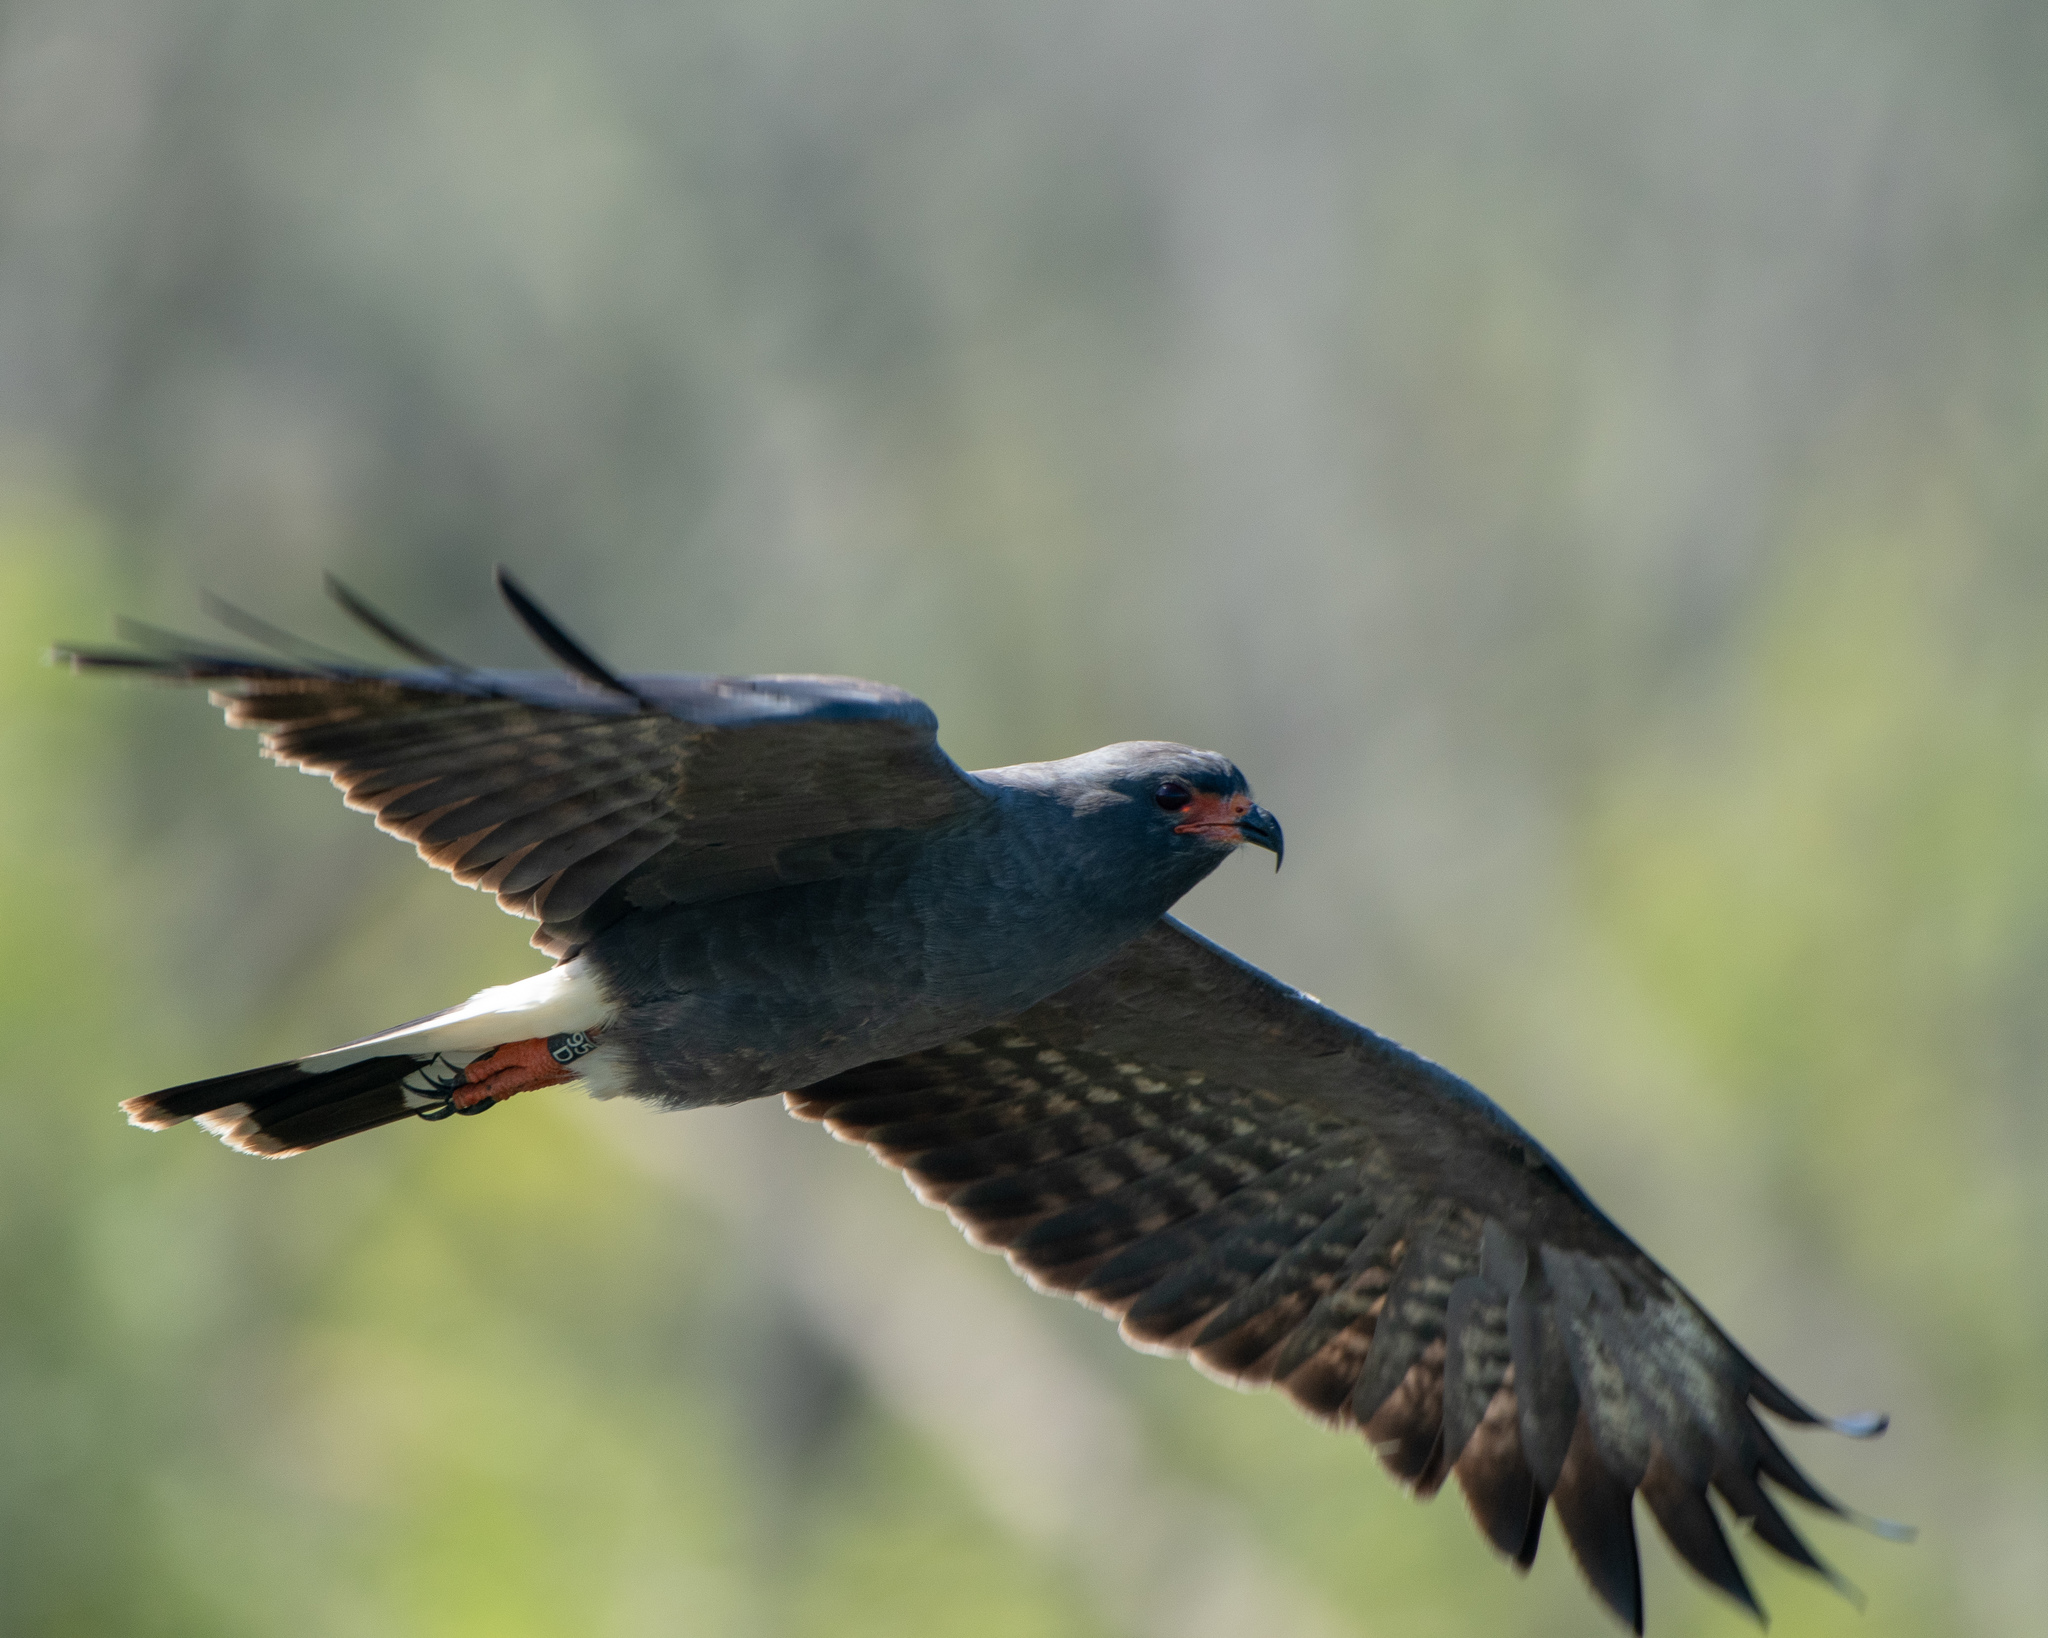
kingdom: Animalia
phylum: Chordata
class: Aves
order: Accipitriformes
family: Accipitridae
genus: Rostrhamus
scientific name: Rostrhamus sociabilis
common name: Snail kite
